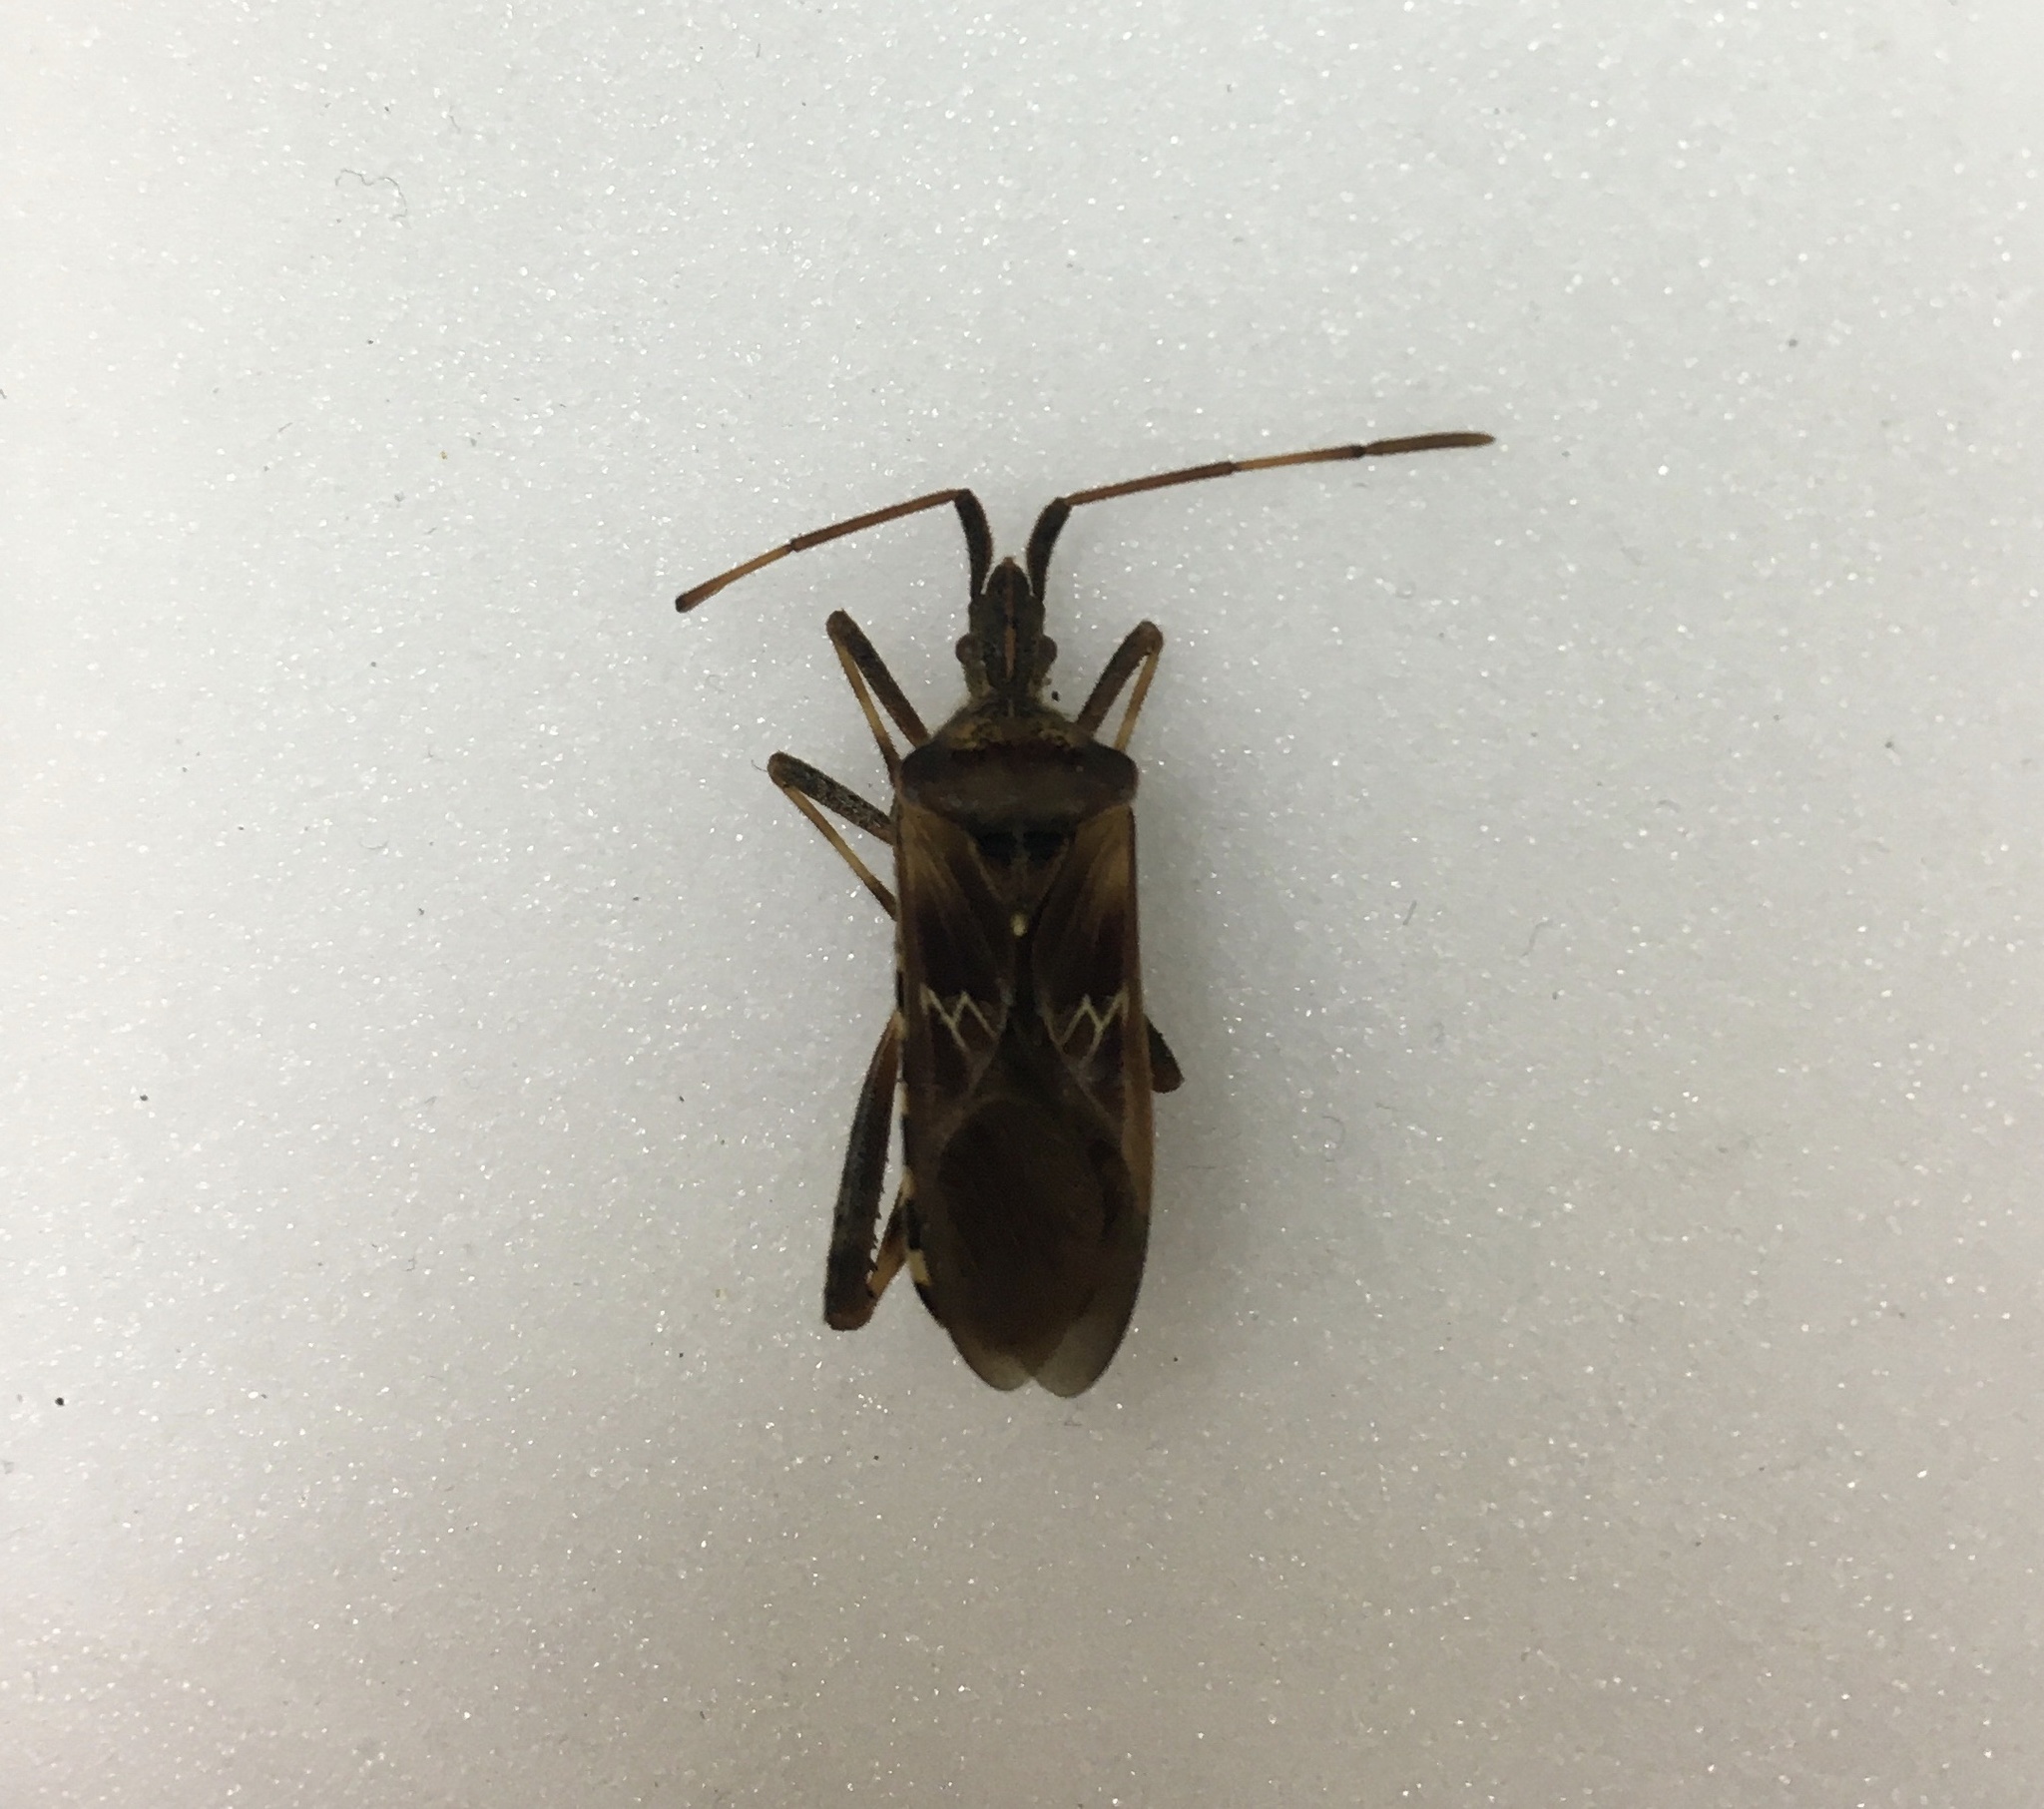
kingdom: Animalia
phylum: Arthropoda
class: Insecta
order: Hemiptera
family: Coreidae
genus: Leptoglossus
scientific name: Leptoglossus occidentalis
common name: Western conifer-seed bug
